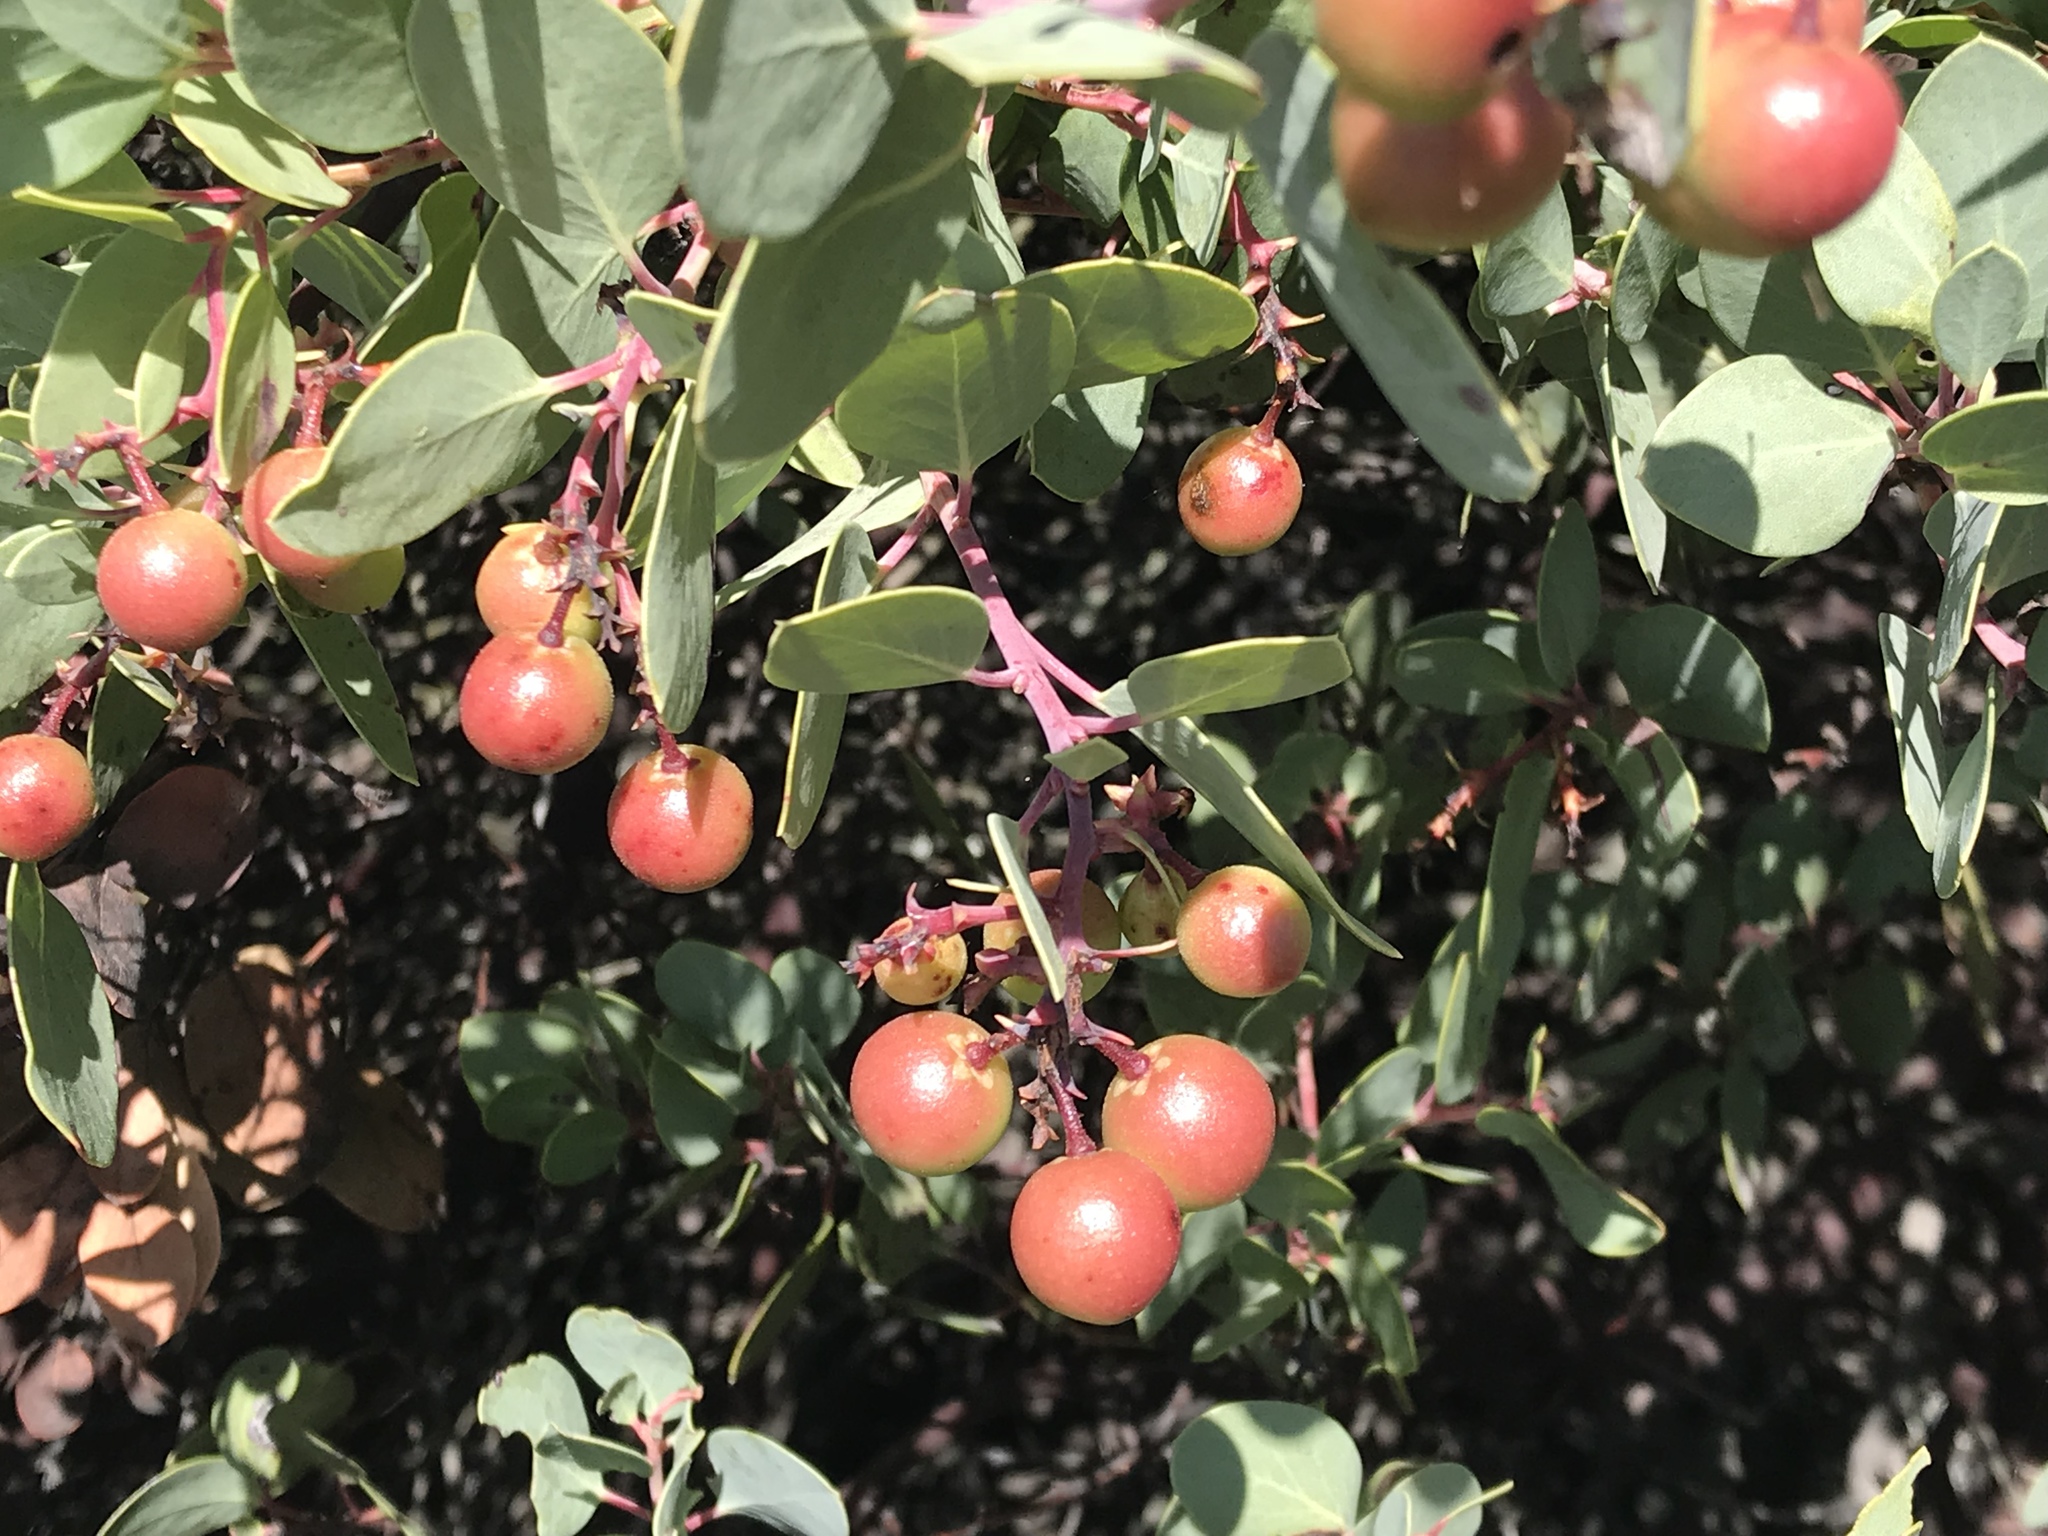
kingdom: Plantae
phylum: Tracheophyta
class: Magnoliopsida
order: Ericales
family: Ericaceae
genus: Arctostaphylos
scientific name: Arctostaphylos glauca
